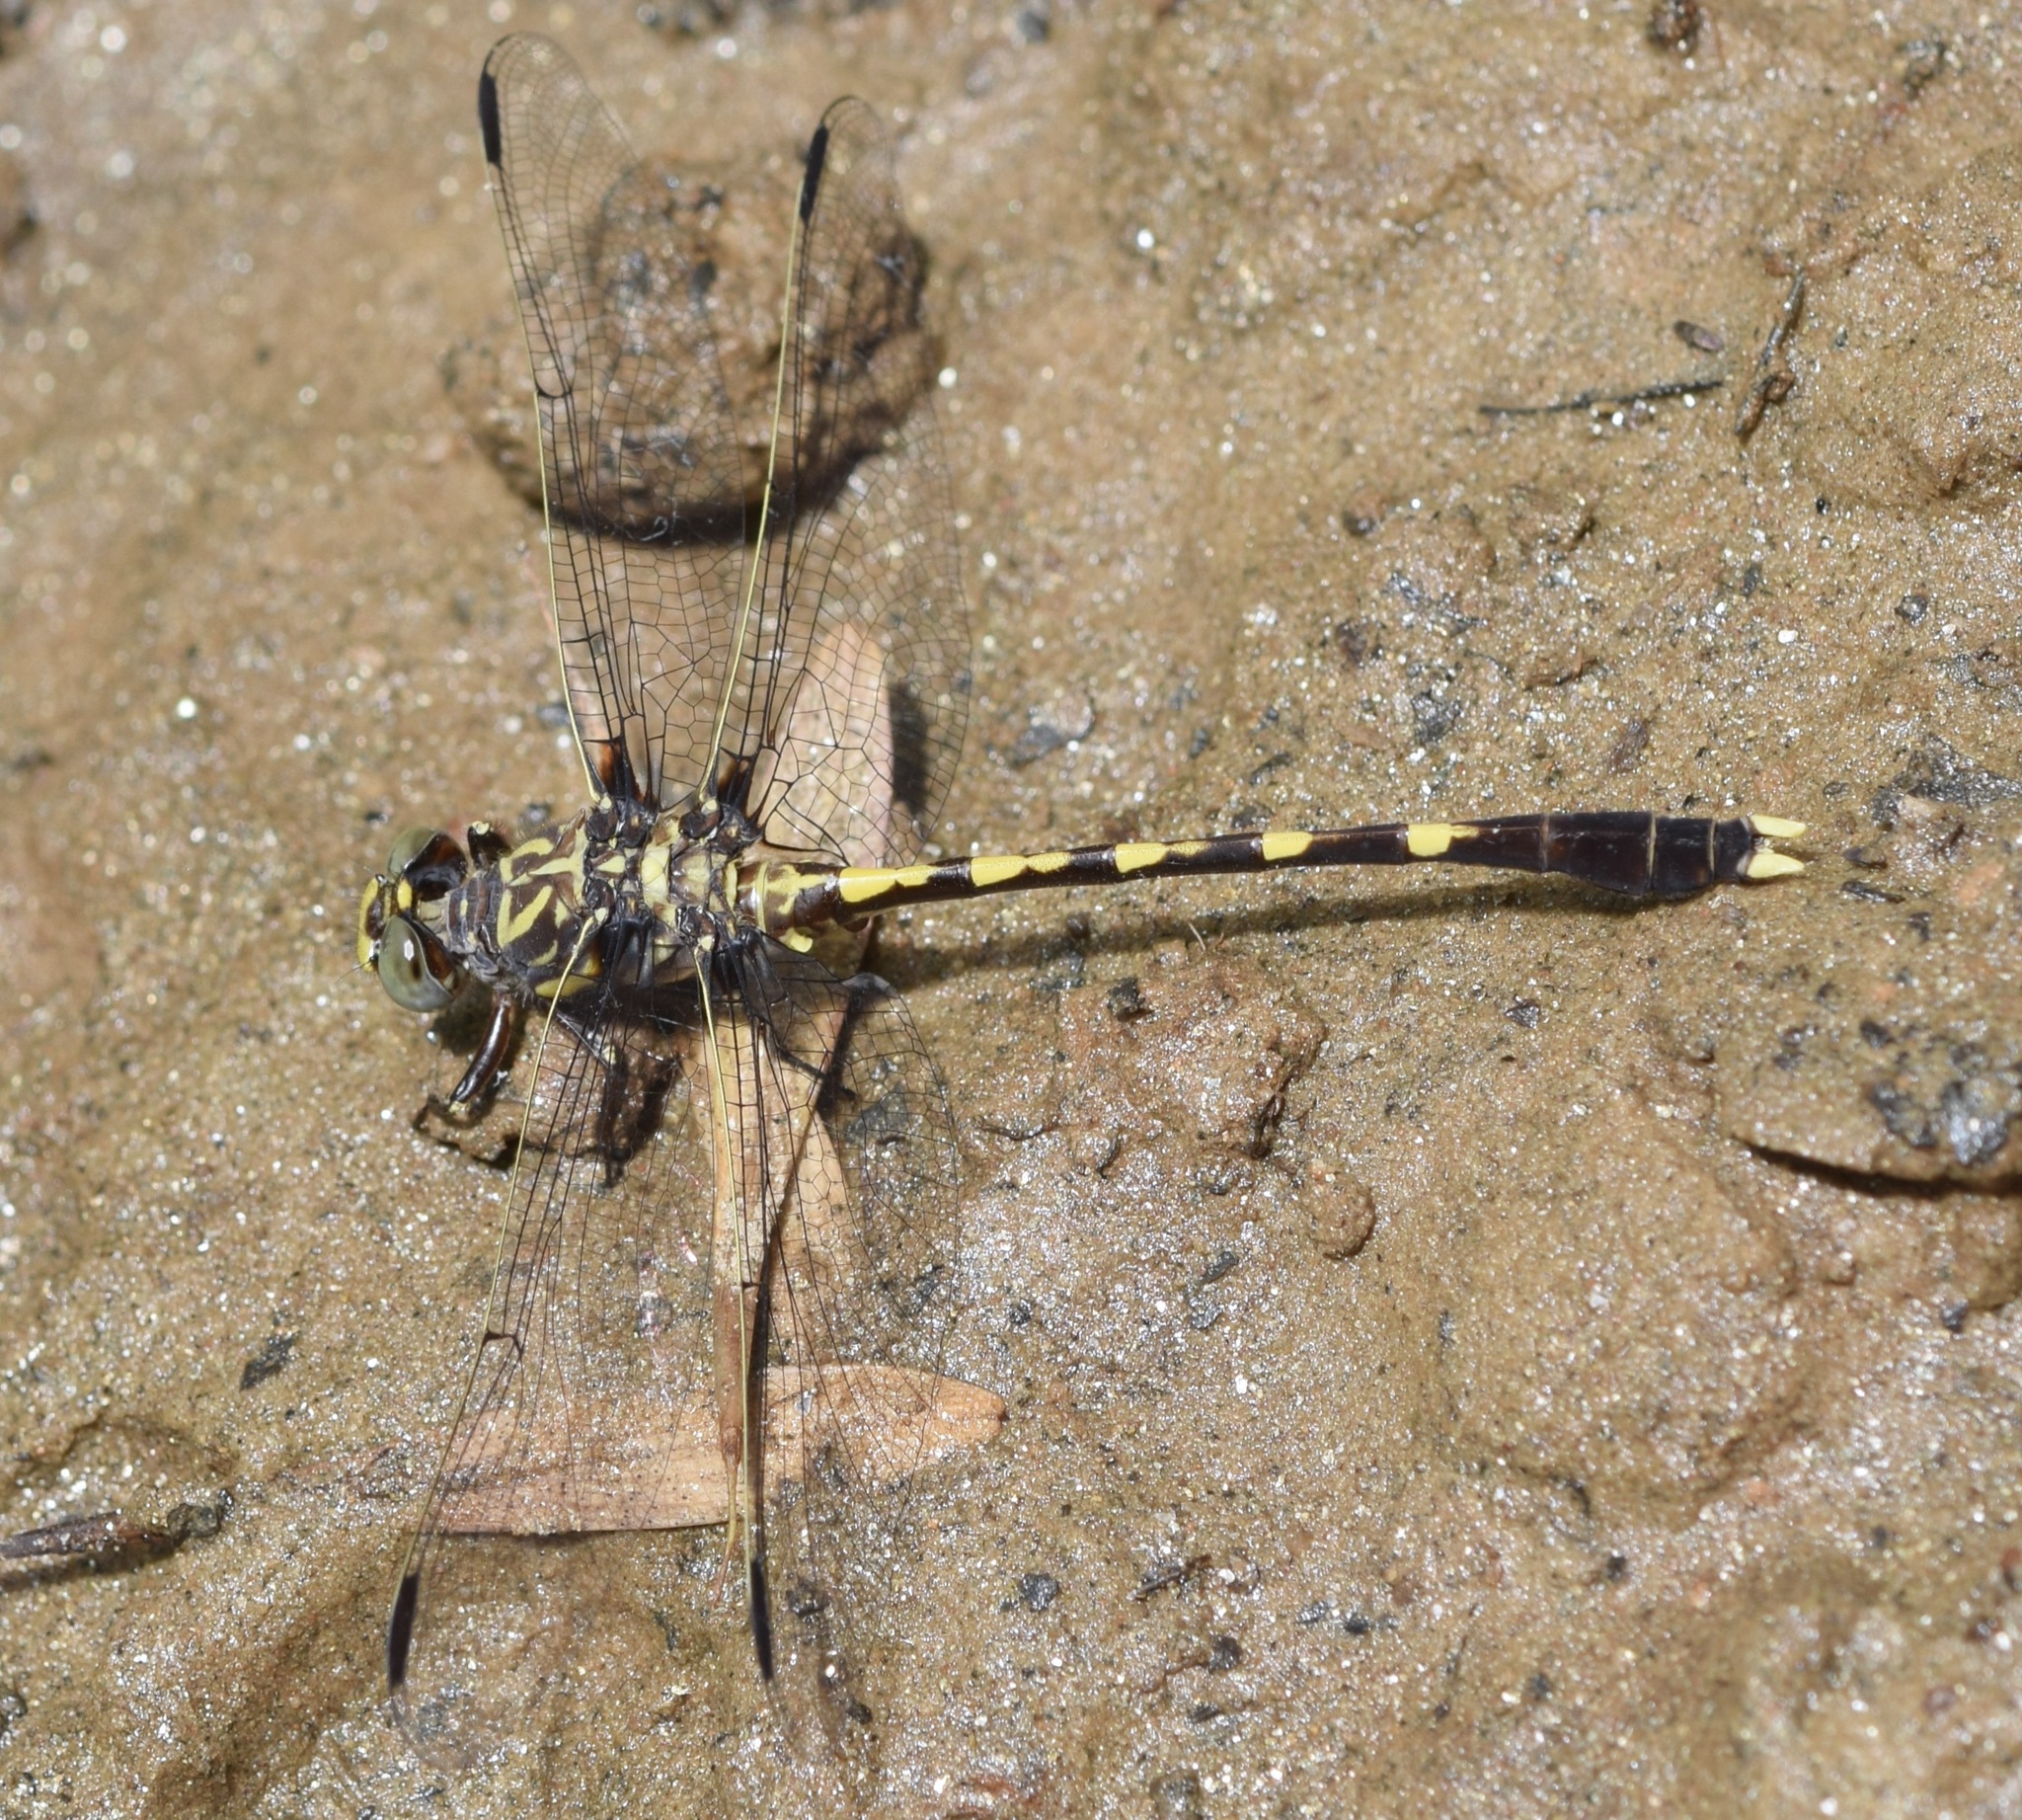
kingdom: Animalia
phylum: Arthropoda
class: Insecta
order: Odonata
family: Gomphidae
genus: Progomphus
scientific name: Progomphus obscurus
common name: Common sanddragon
